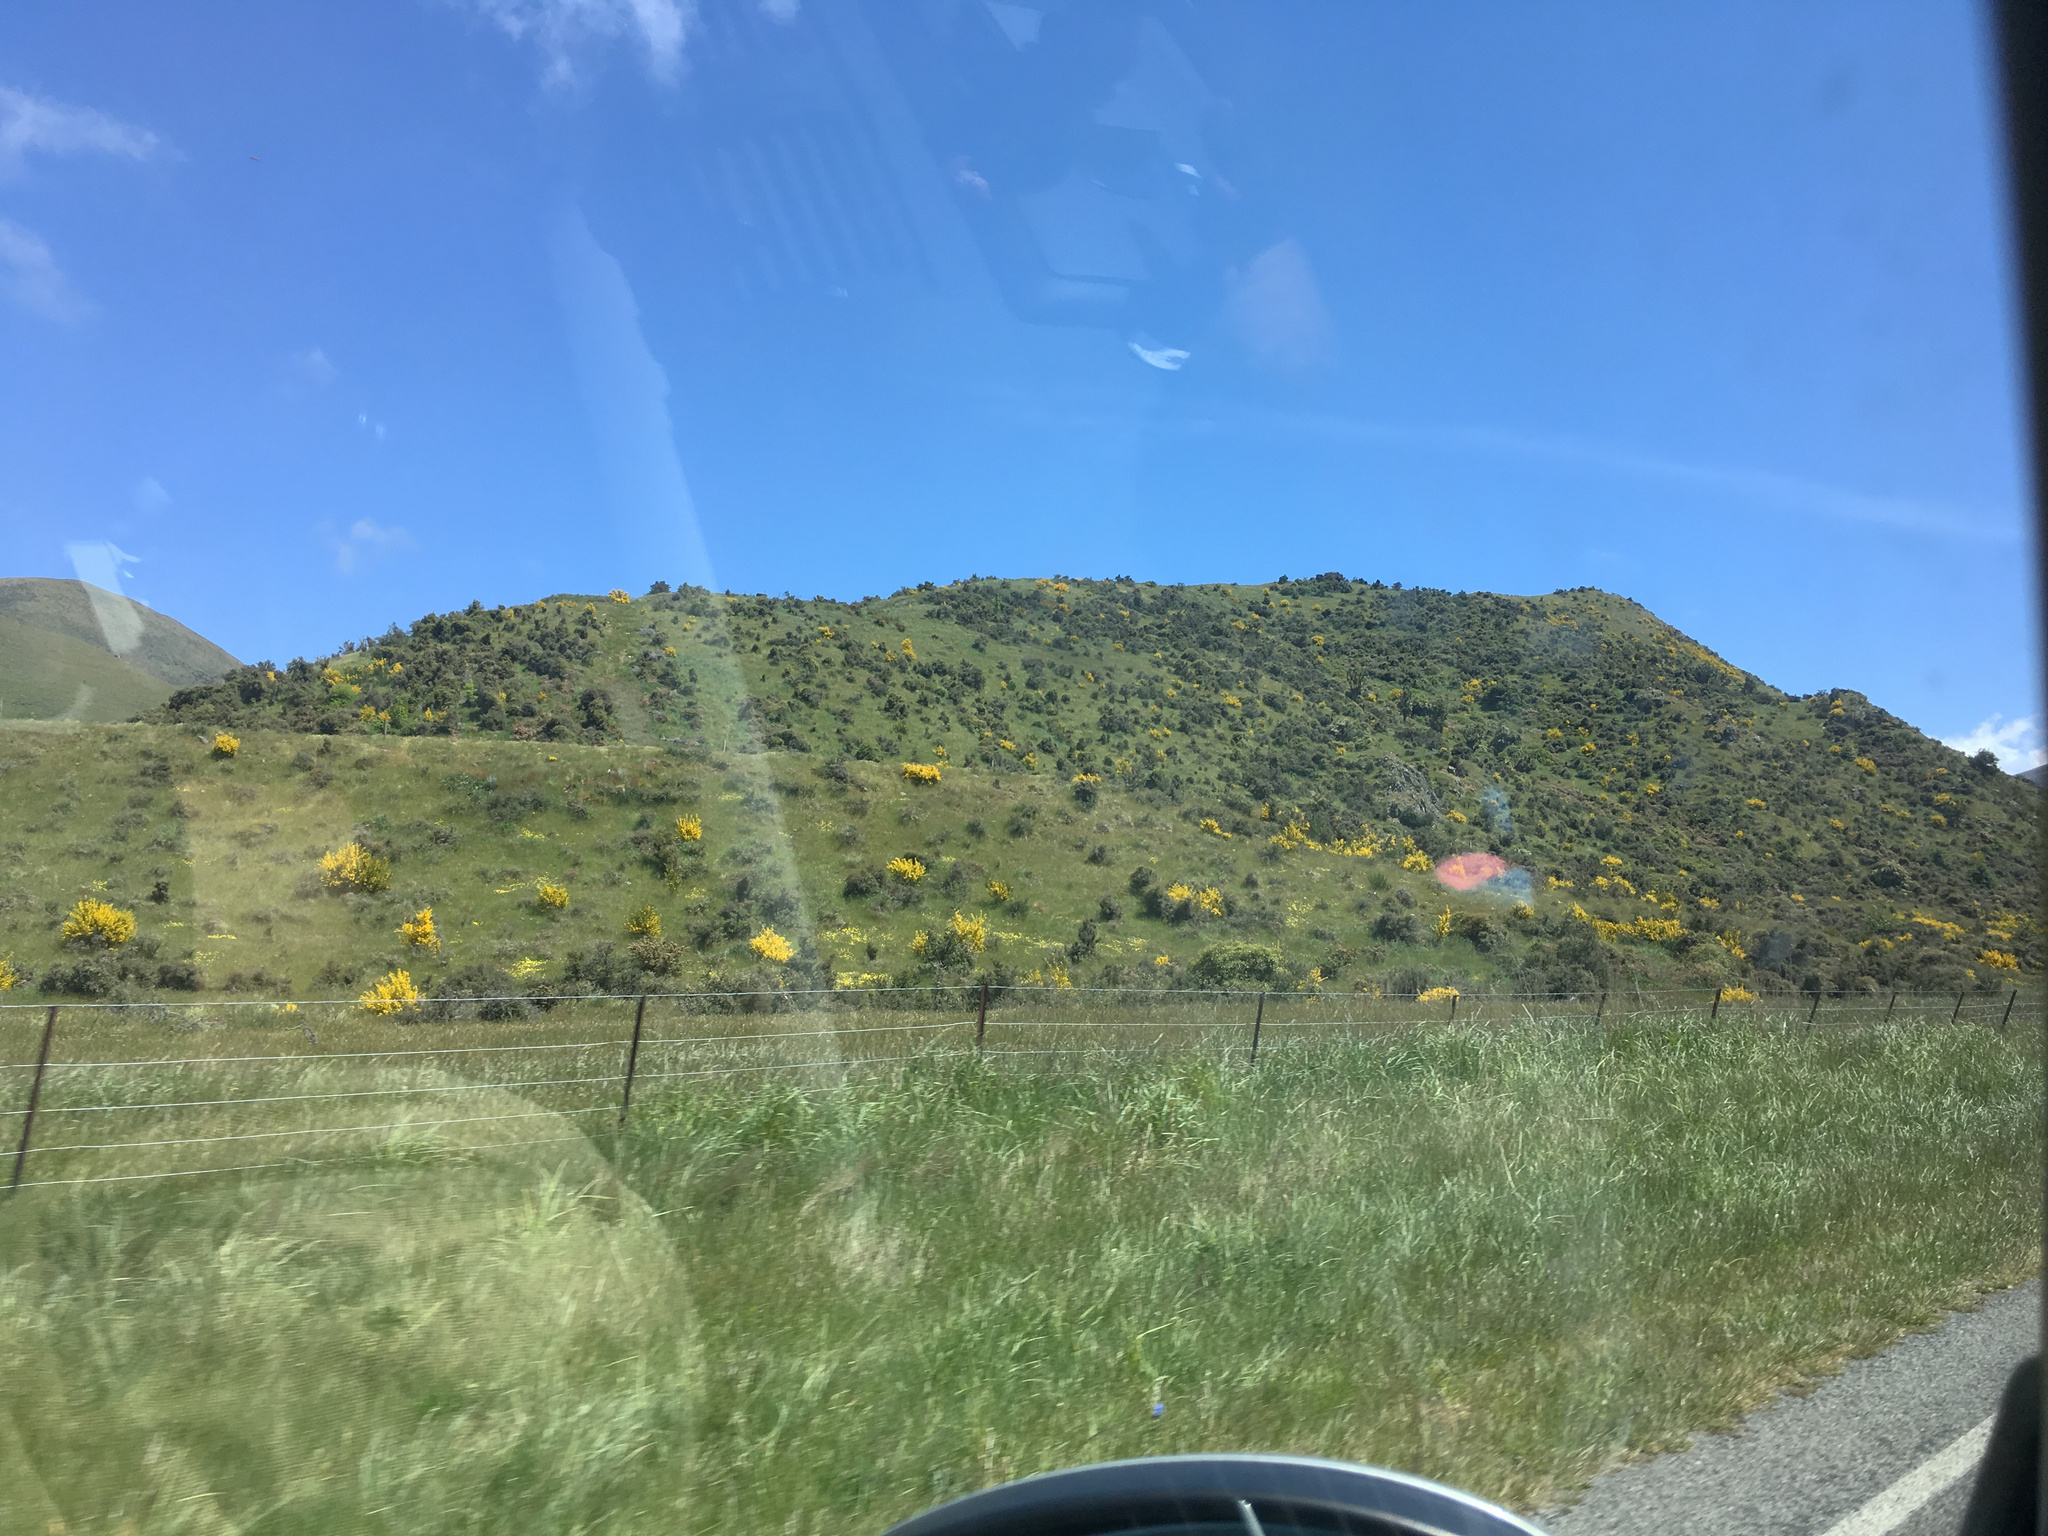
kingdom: Plantae
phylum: Tracheophyta
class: Magnoliopsida
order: Fabales
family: Fabaceae
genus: Cytisus
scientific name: Cytisus scoparius
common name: Scotch broom
